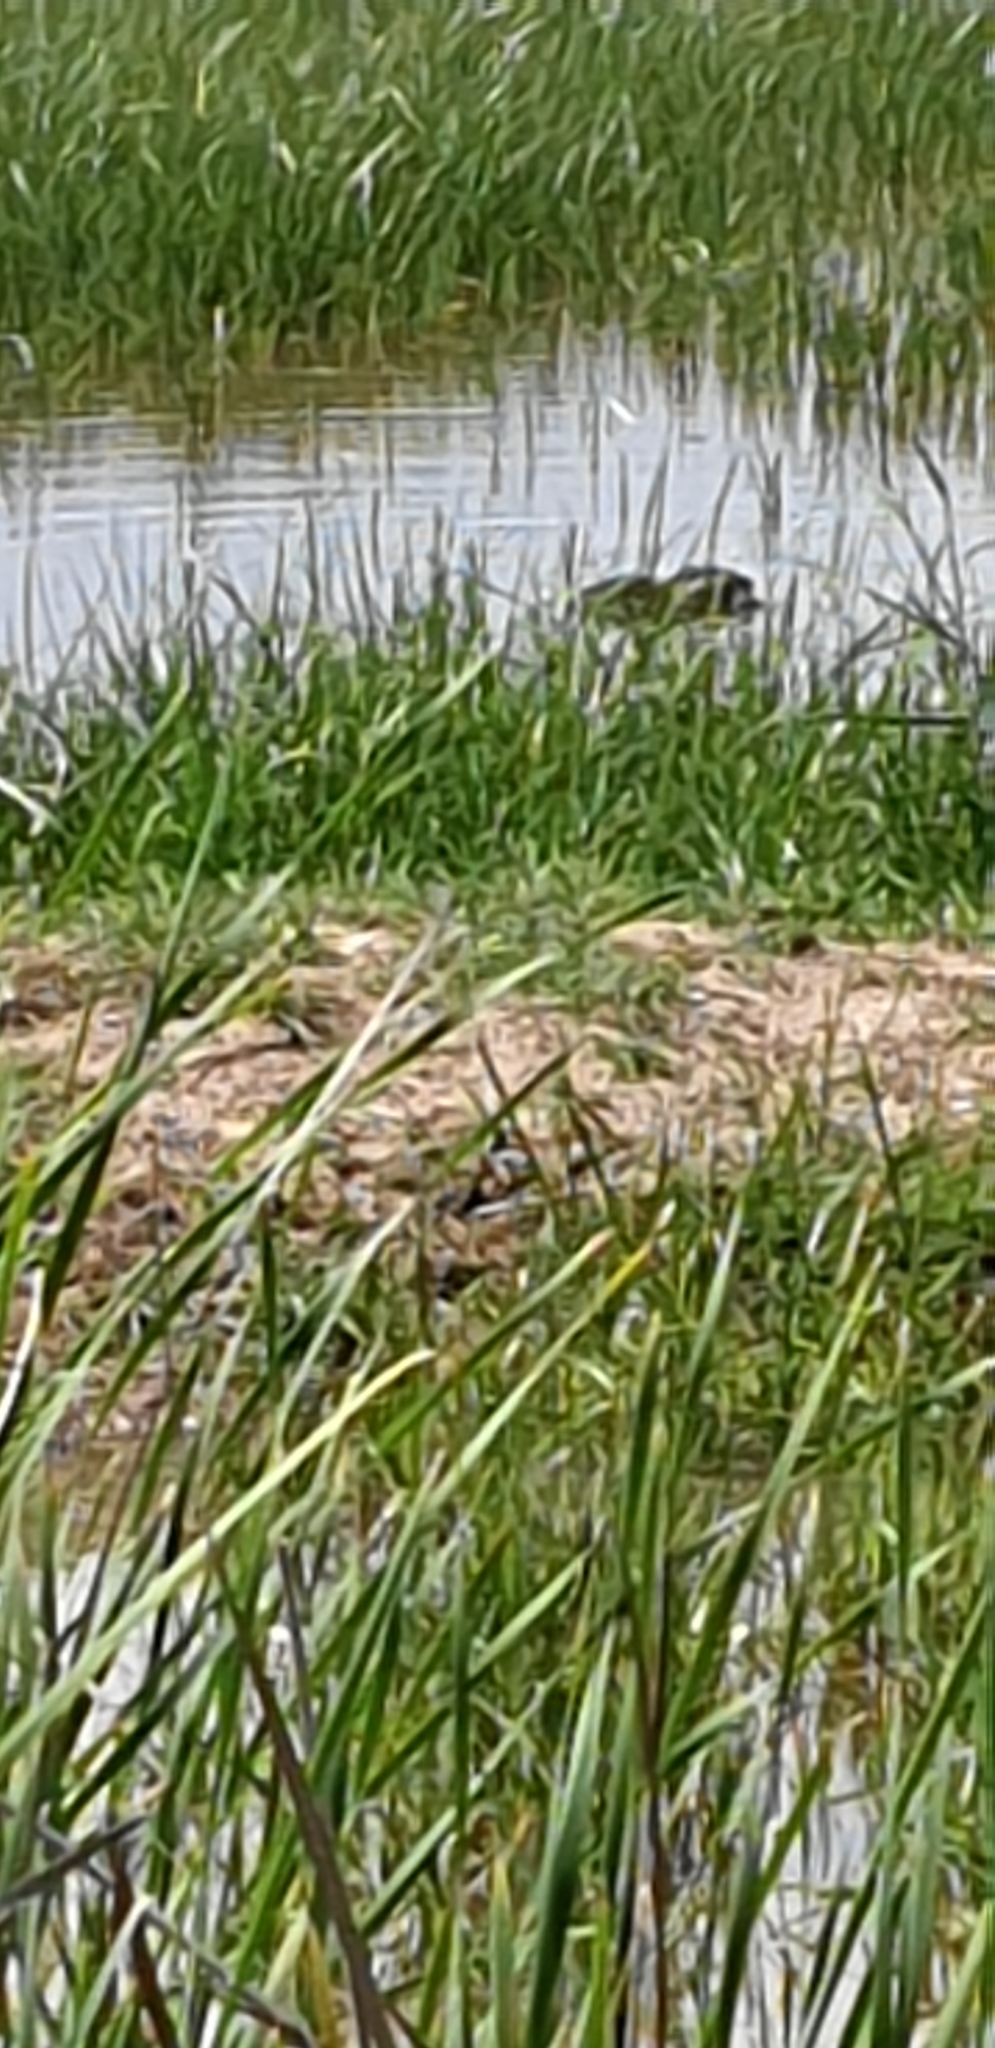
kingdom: Animalia
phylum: Chordata
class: Mammalia
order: Rodentia
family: Myocastoridae
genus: Myocastor
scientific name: Myocastor coypus
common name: Coypu
